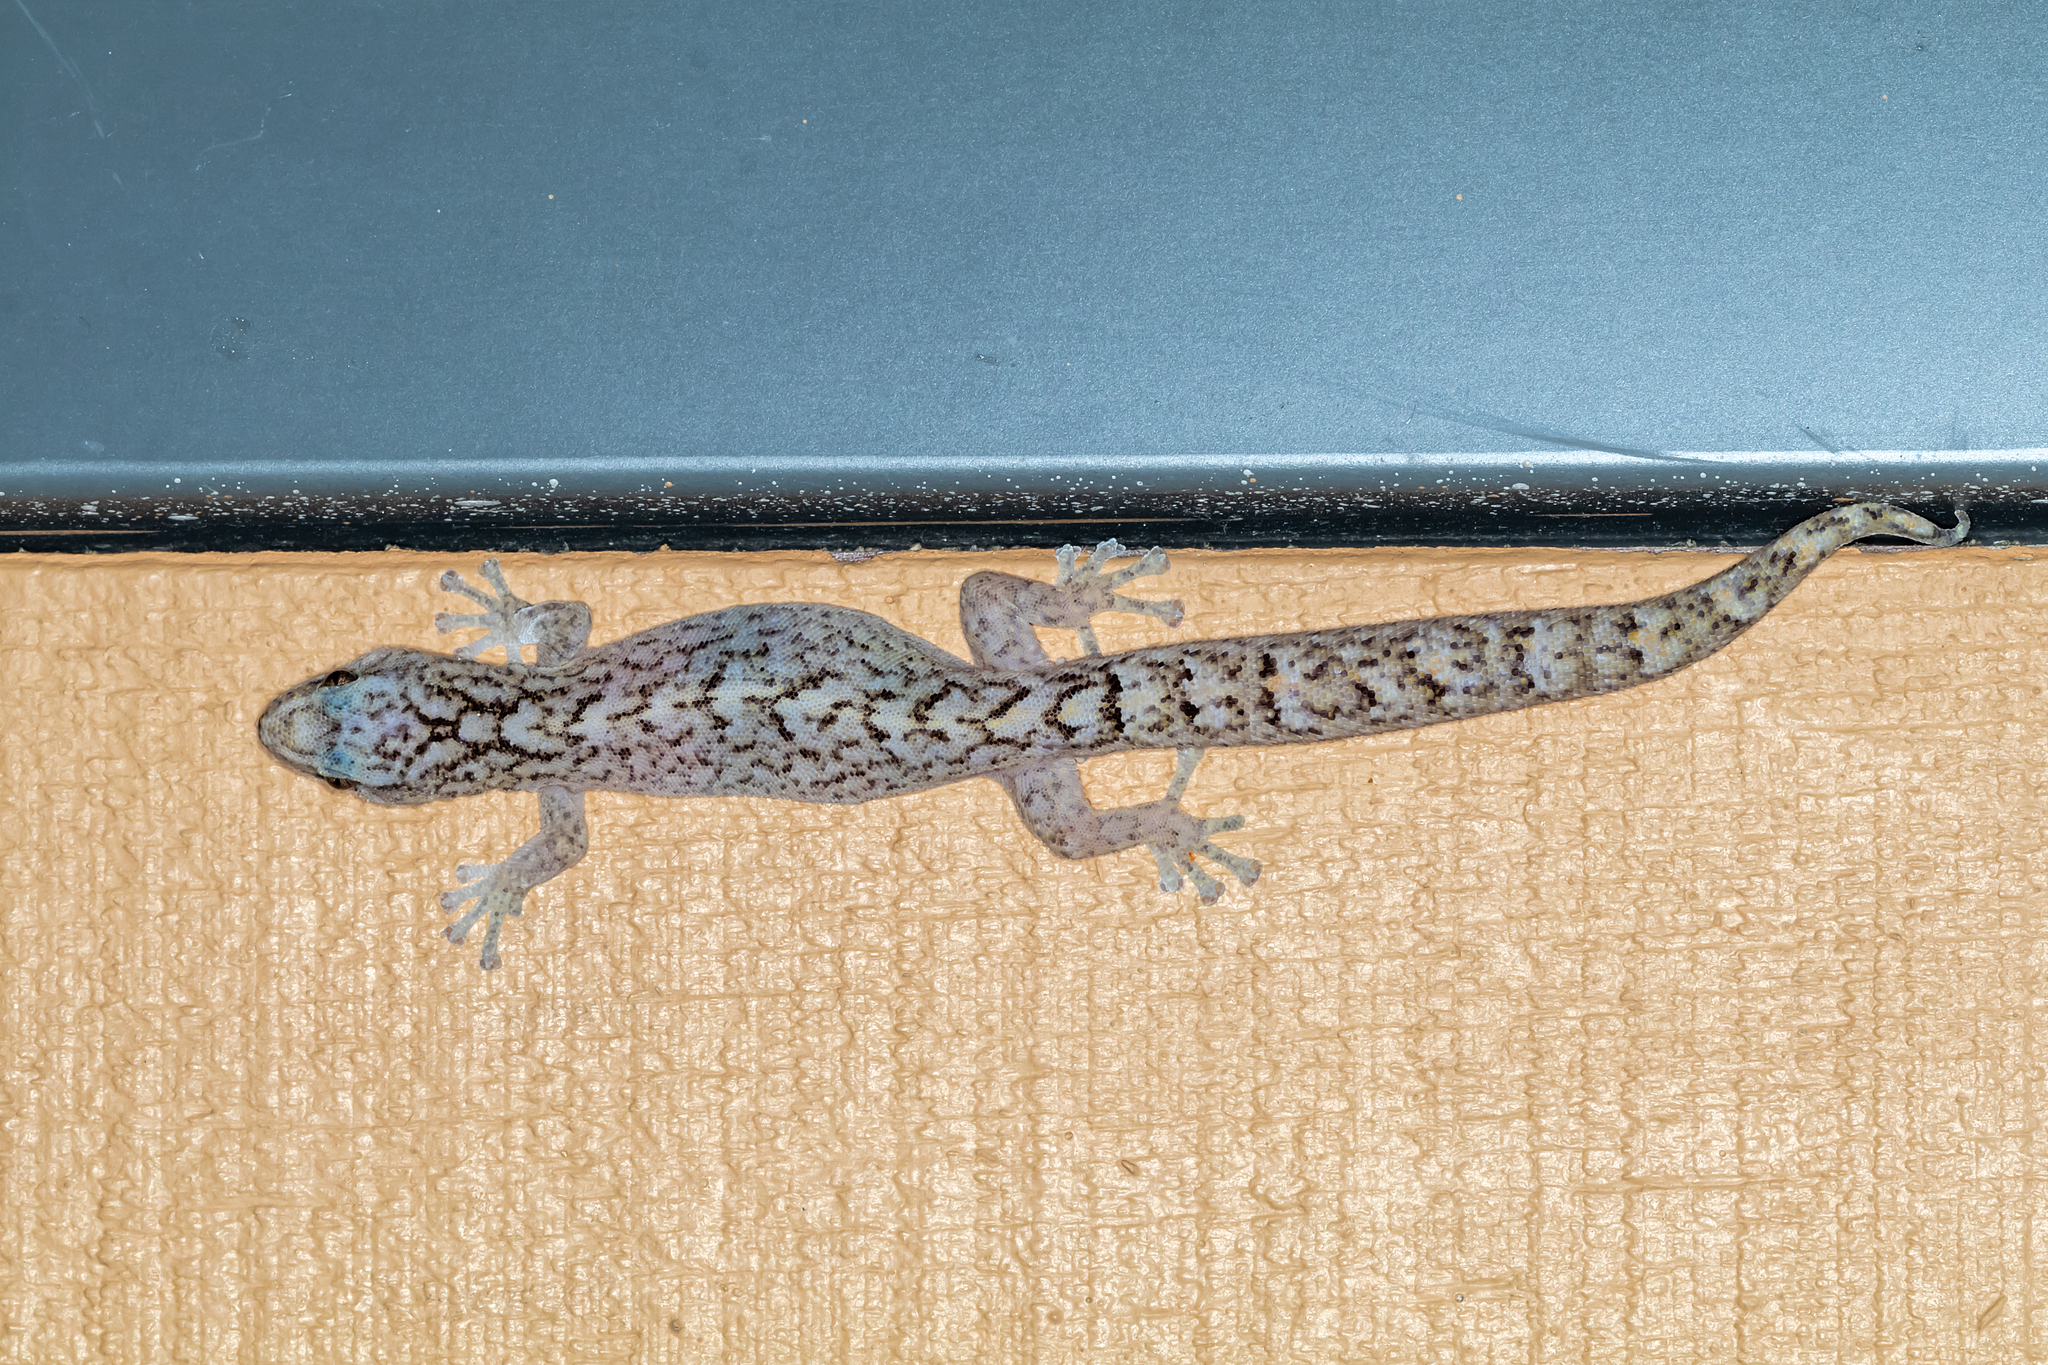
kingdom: Animalia
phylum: Chordata
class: Squamata
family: Gekkonidae
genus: Christinus
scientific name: Christinus marmoratus
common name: Marbled gecko
